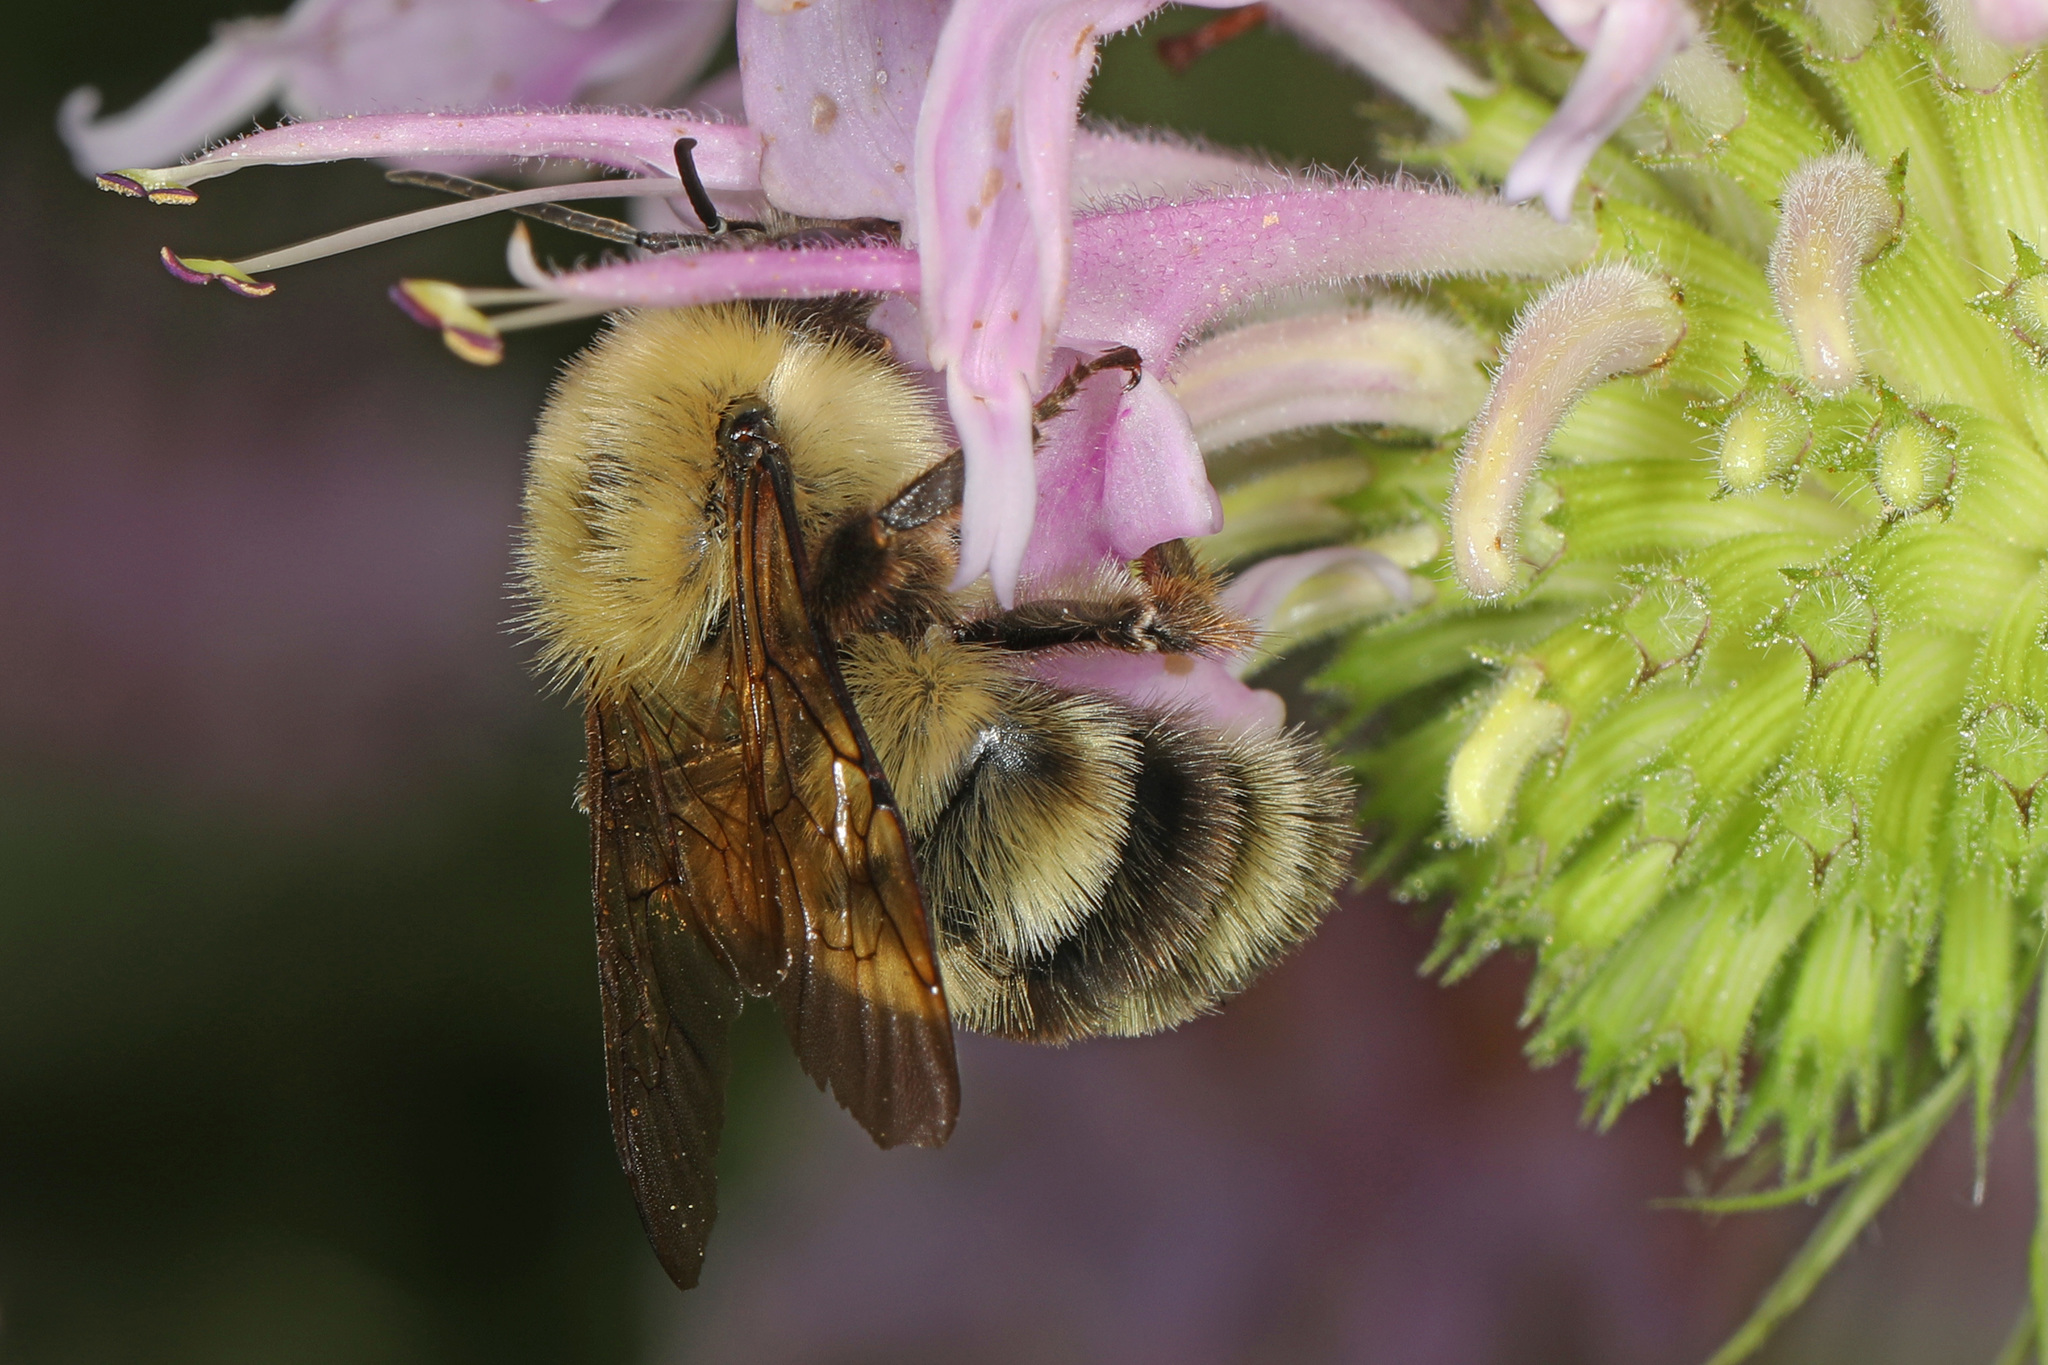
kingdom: Animalia
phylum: Arthropoda
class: Insecta
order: Hymenoptera
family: Apidae
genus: Bombus
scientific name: Bombus bimaculatus
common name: Two-spotted bumble bee
